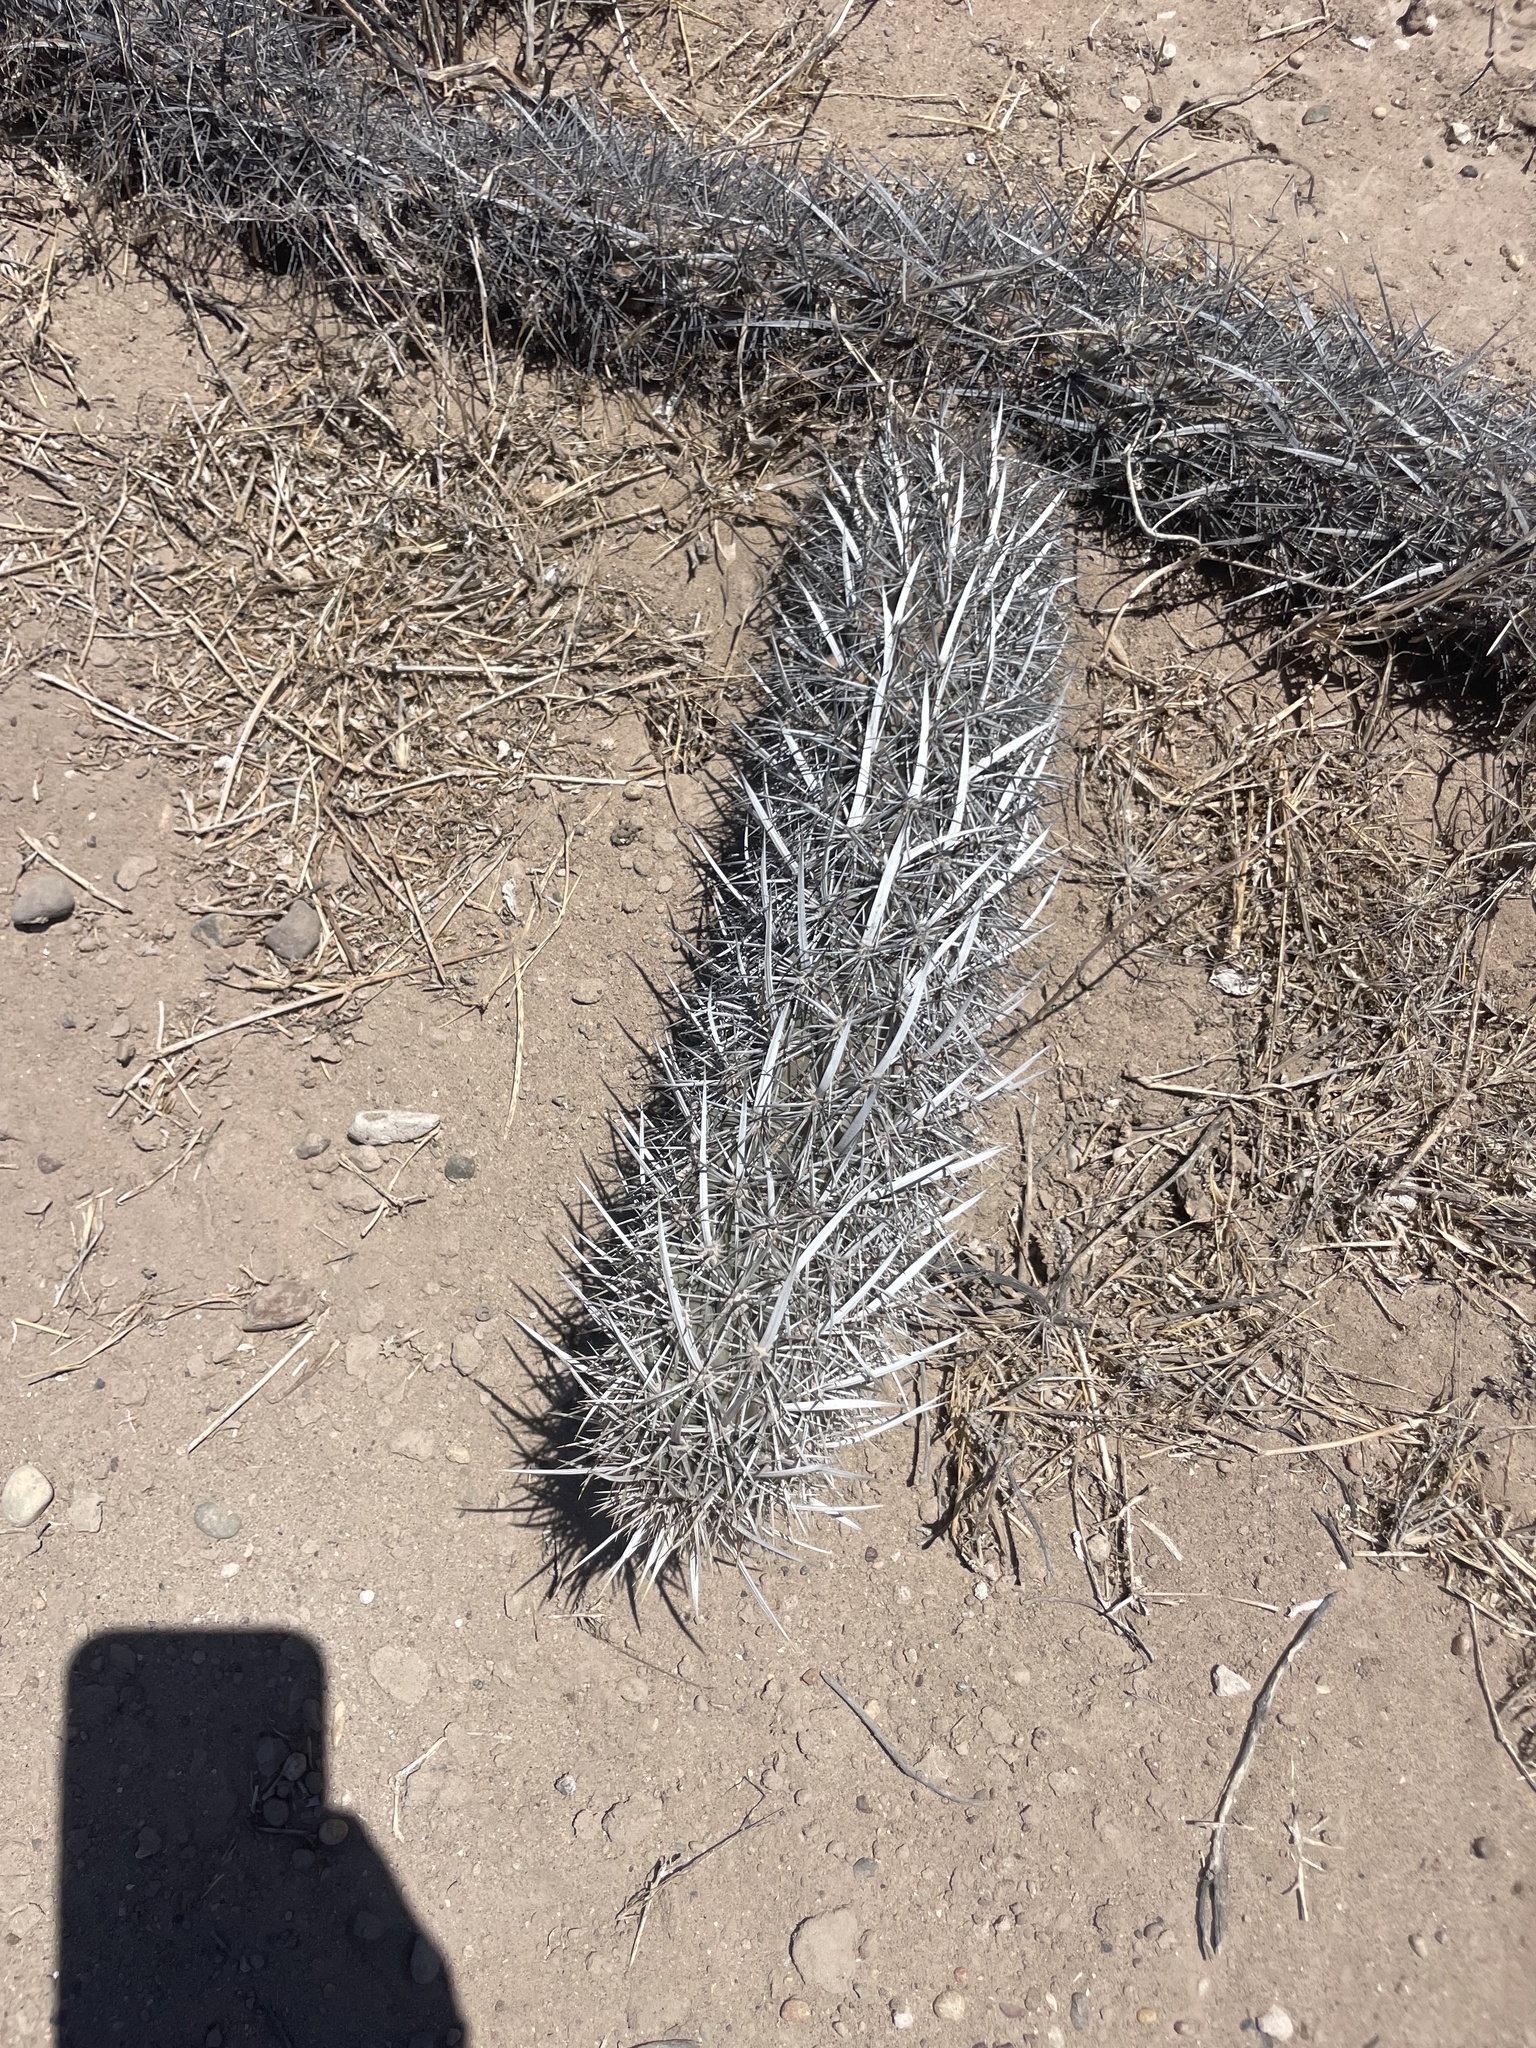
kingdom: Plantae
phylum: Tracheophyta
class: Magnoliopsida
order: Caryophyllales
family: Cactaceae
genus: Stenocereus
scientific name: Stenocereus eruca
